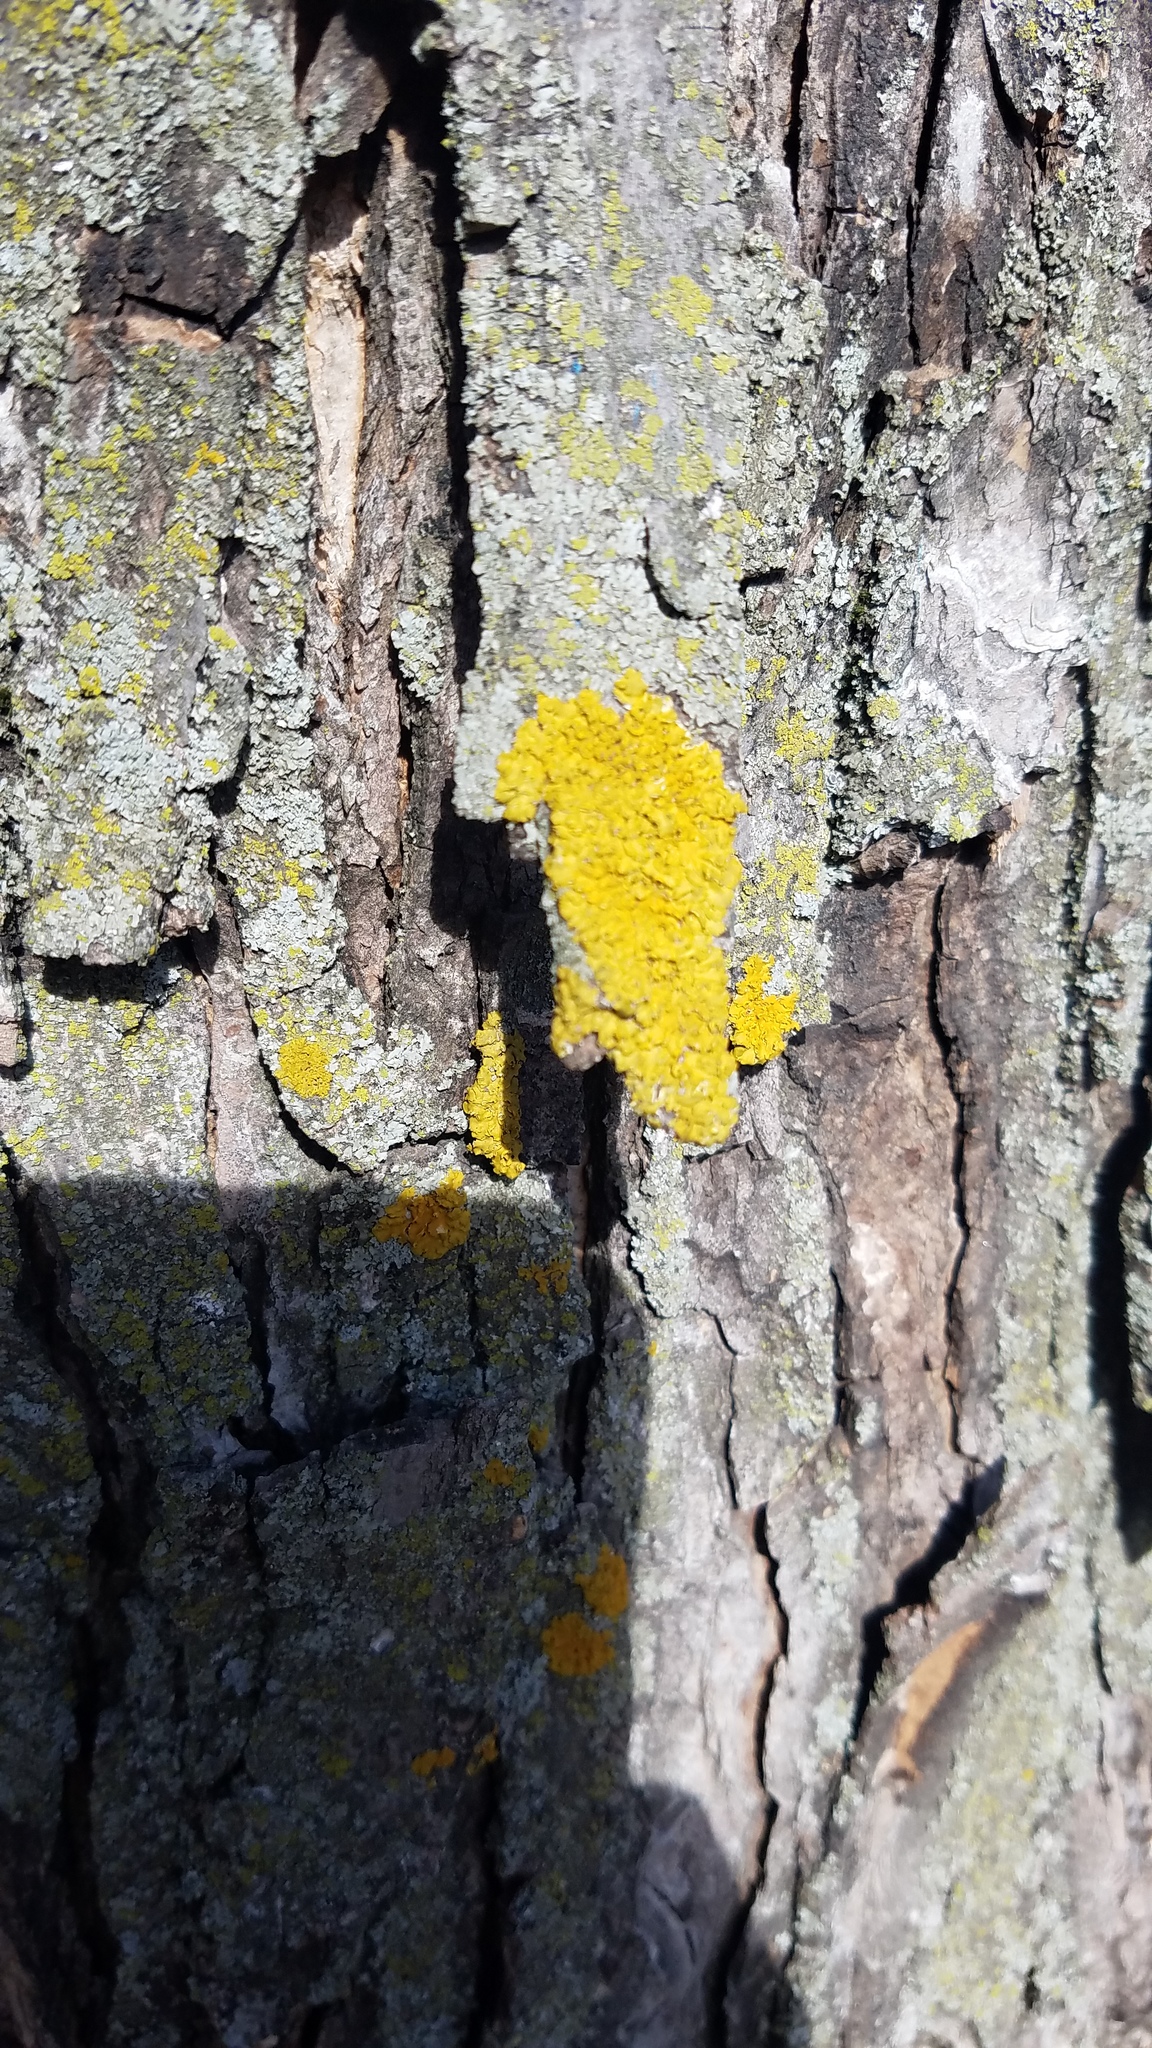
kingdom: Fungi
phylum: Ascomycota
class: Candelariomycetes
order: Candelariales
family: Candelariaceae
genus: Candelaria
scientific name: Candelaria concolor
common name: Candleflame lichen
